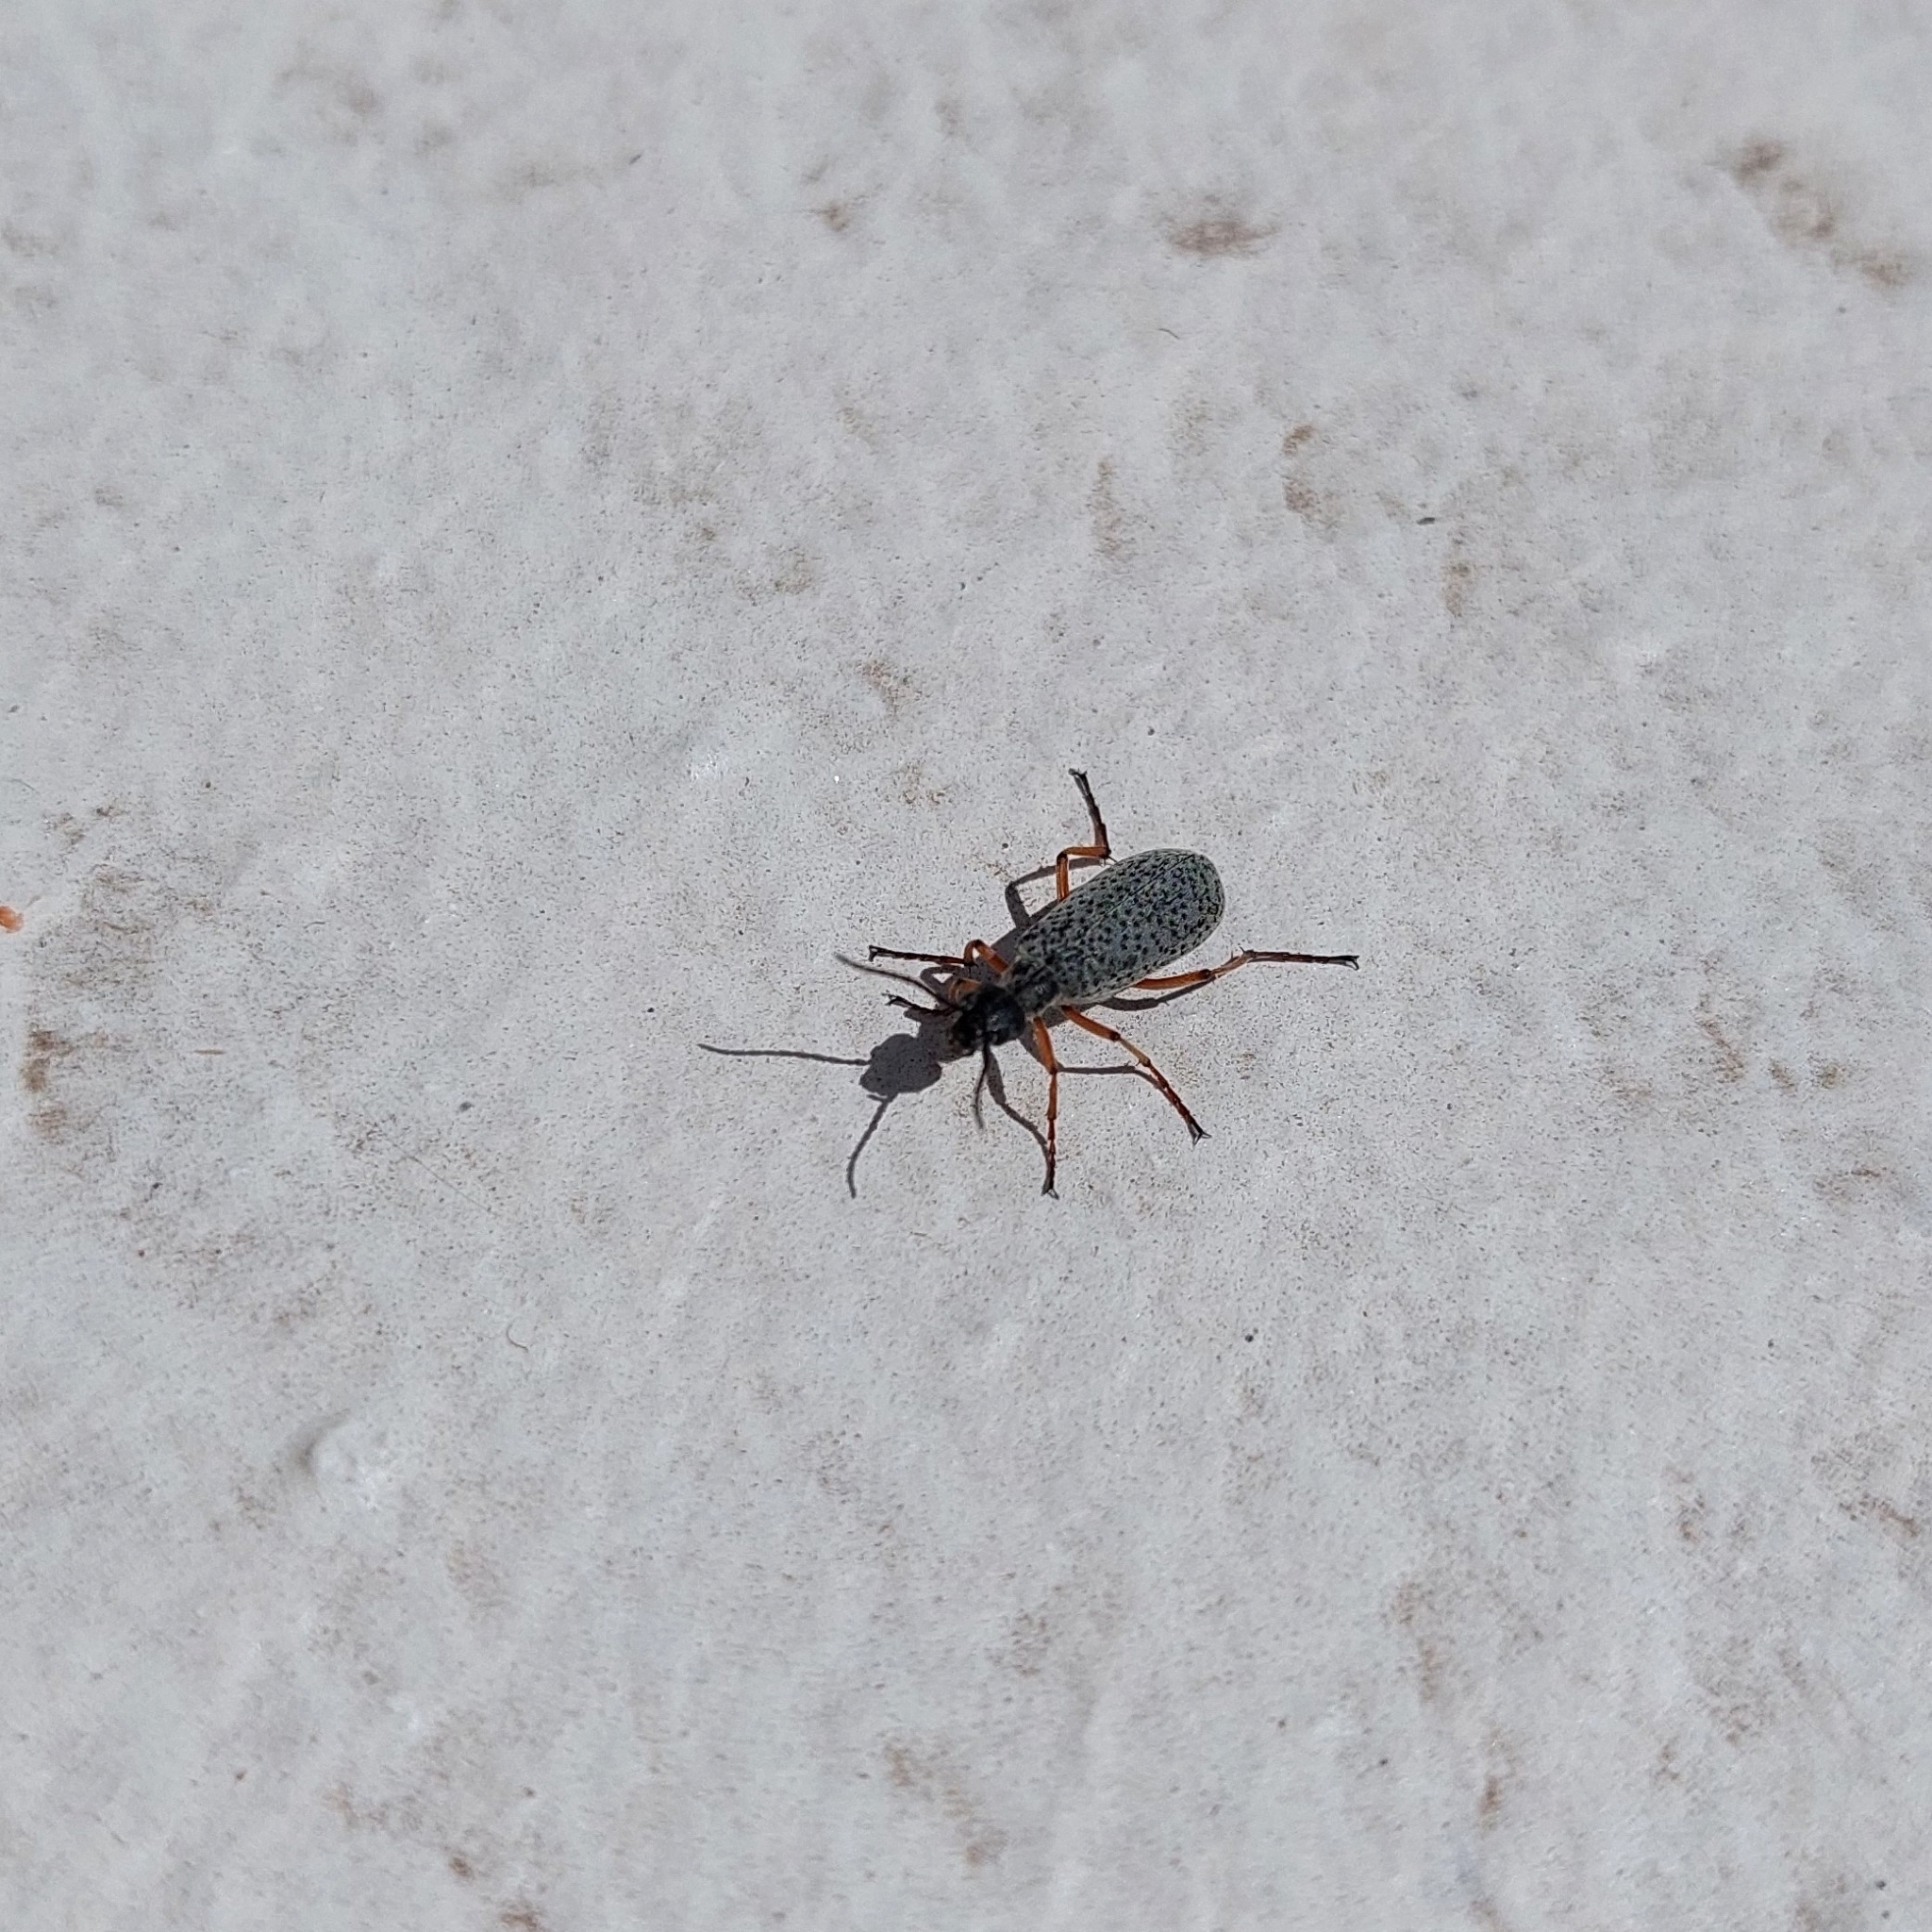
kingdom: Animalia
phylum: Arthropoda
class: Insecta
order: Coleoptera
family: Meloidae
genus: Epicauta
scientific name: Epicauta
